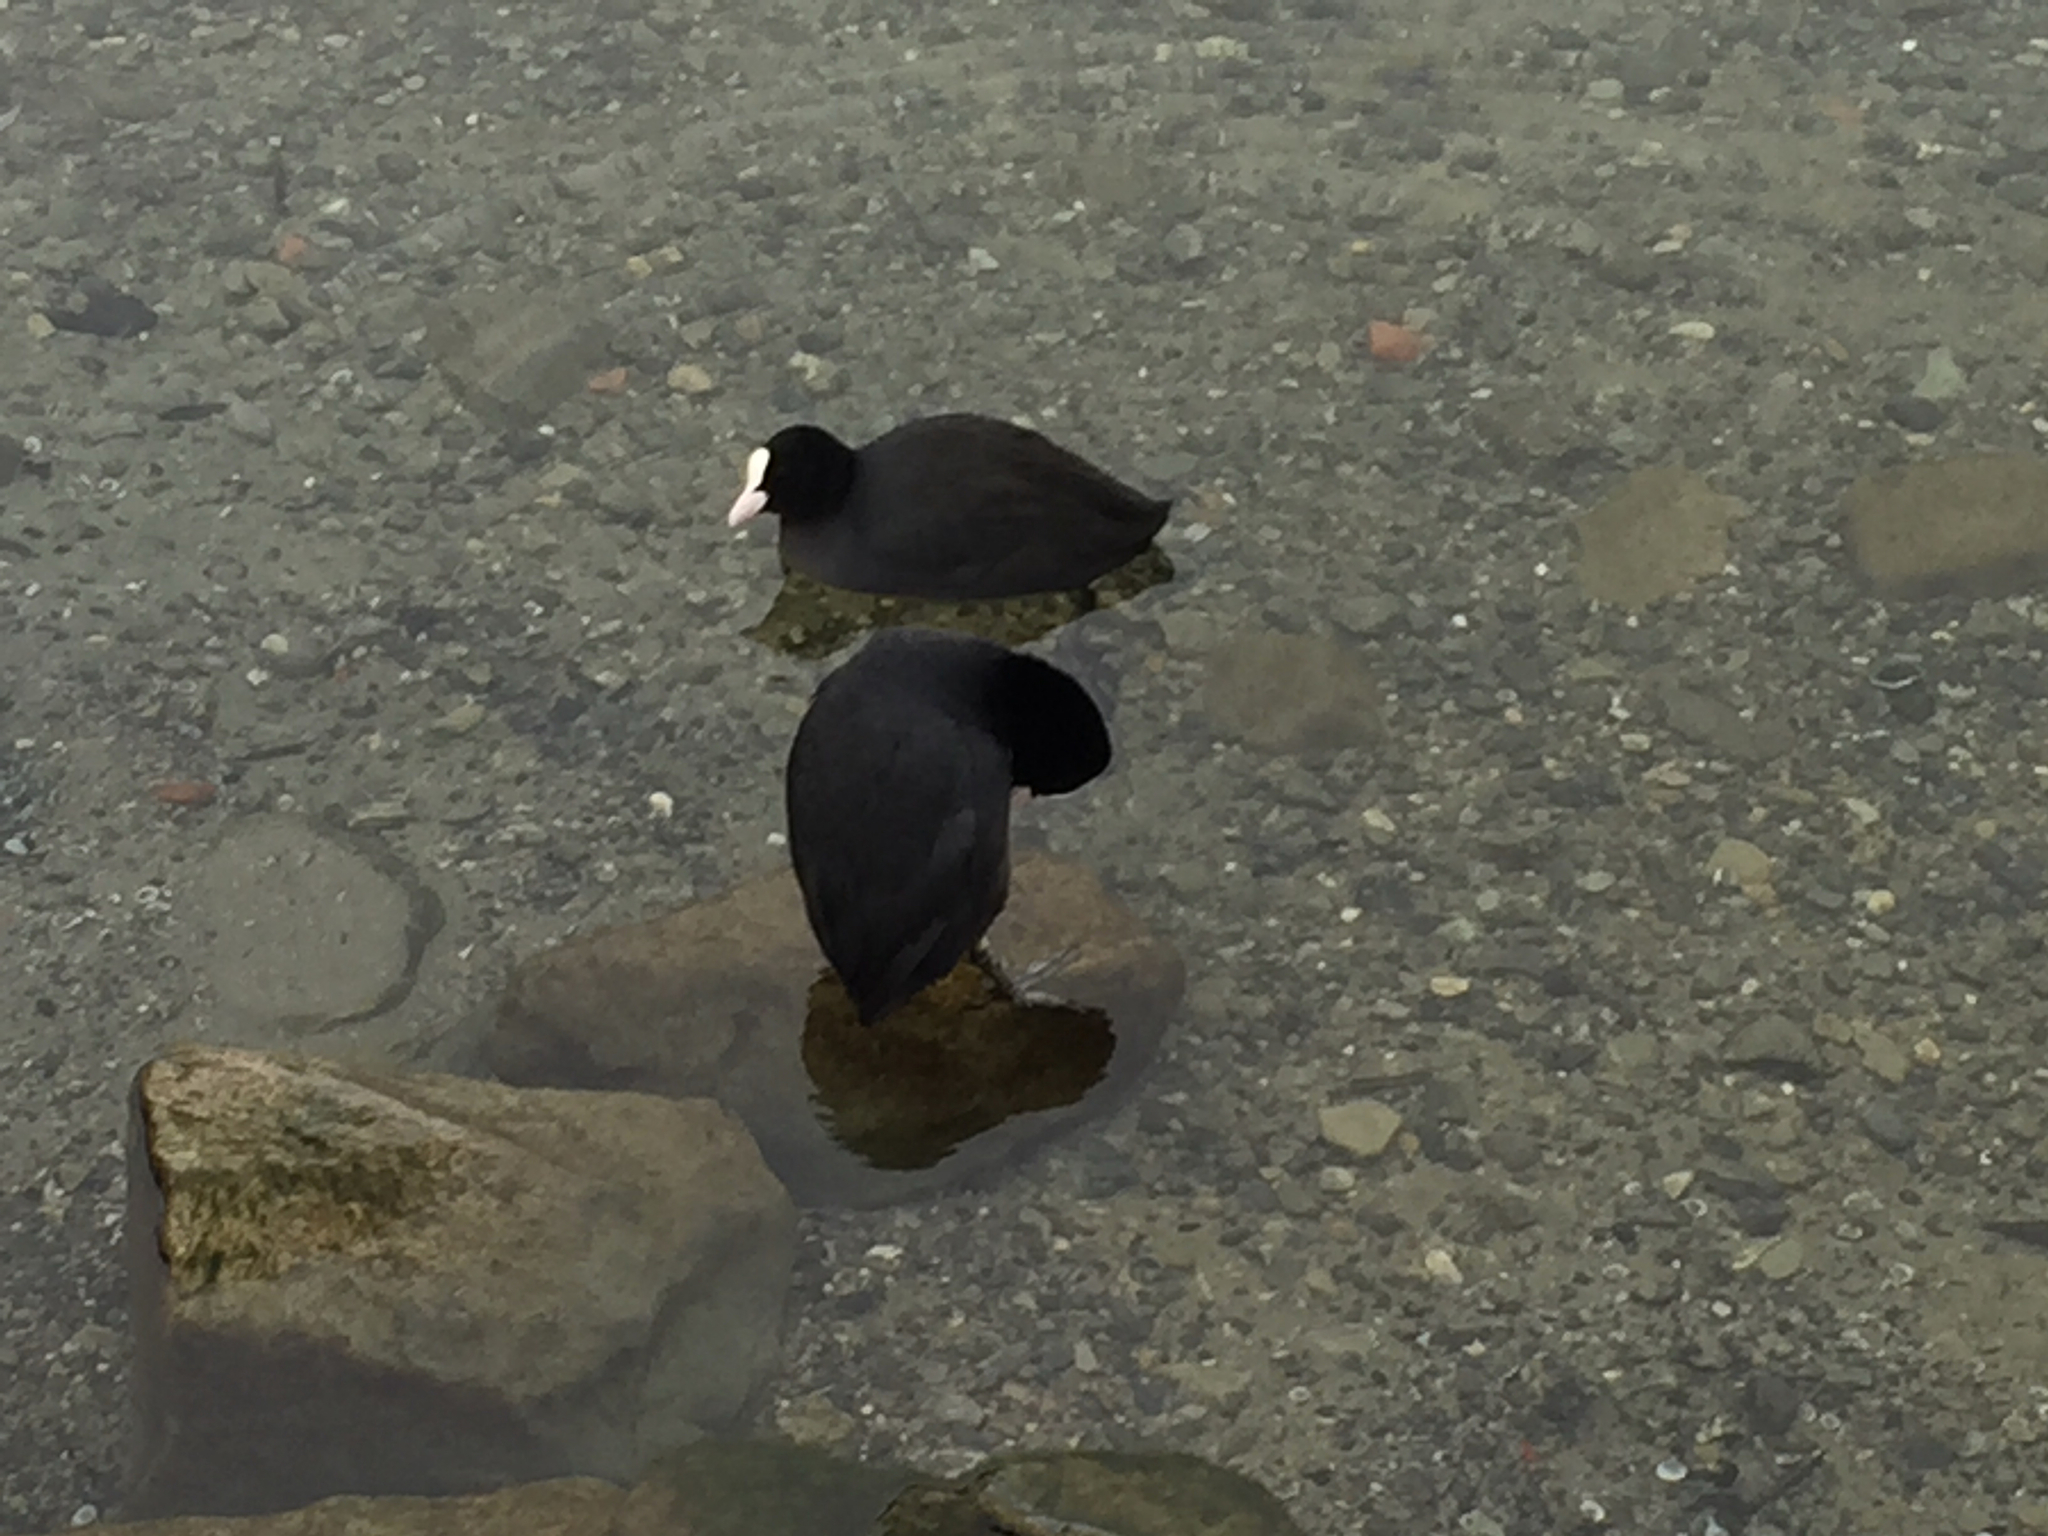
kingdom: Animalia
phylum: Chordata
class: Aves
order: Gruiformes
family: Rallidae
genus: Fulica
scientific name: Fulica atra
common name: Eurasian coot
